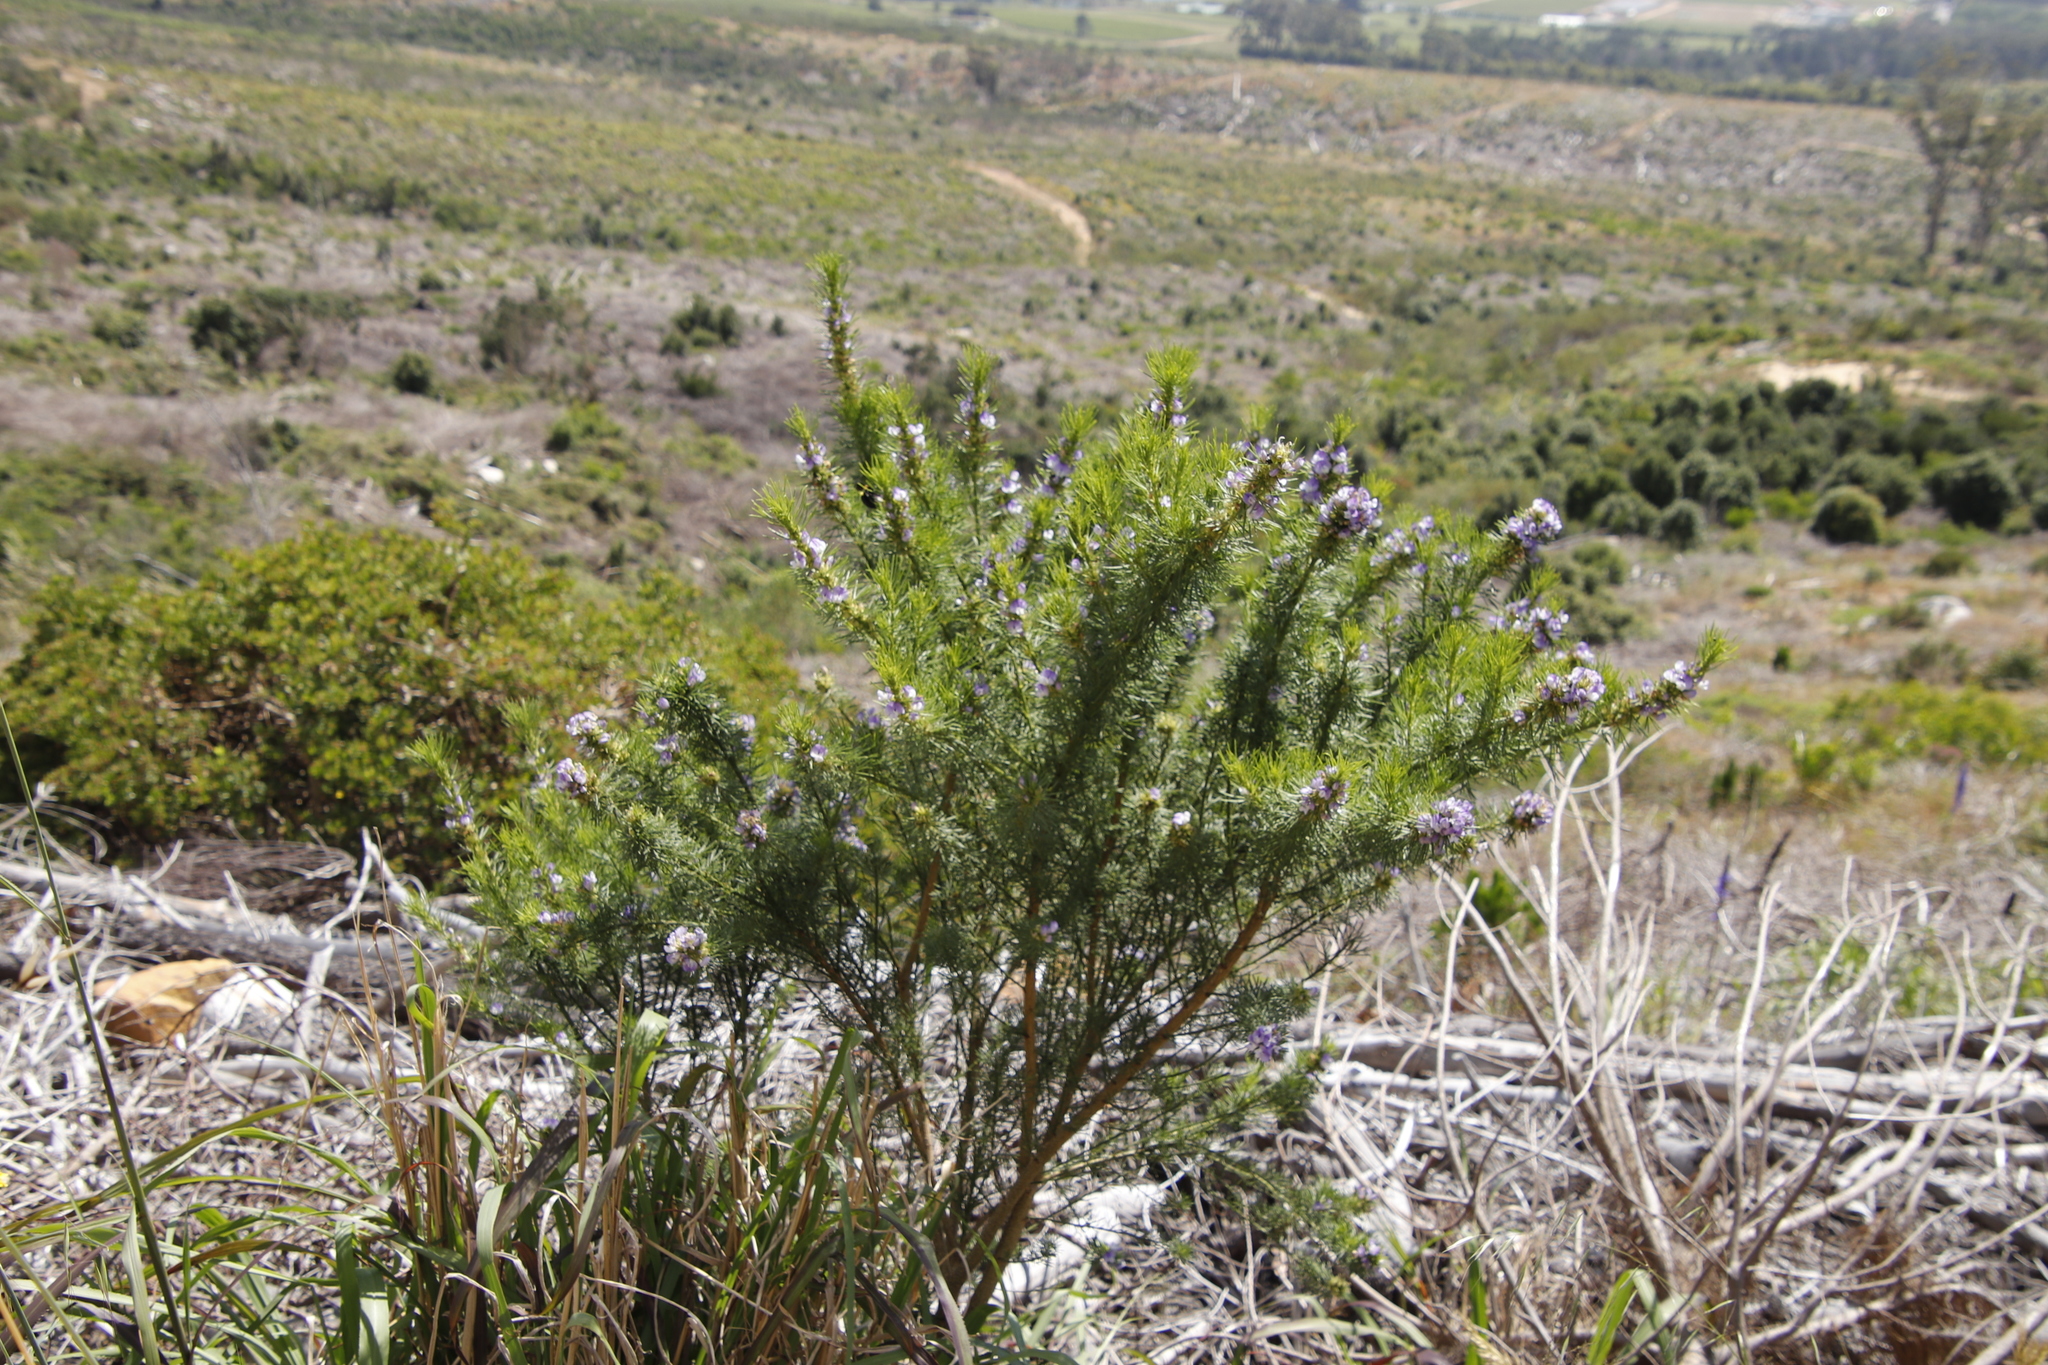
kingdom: Plantae
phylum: Tracheophyta
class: Magnoliopsida
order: Fabales
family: Fabaceae
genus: Psoralea
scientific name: Psoralea pinnata
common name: African scurfpea
